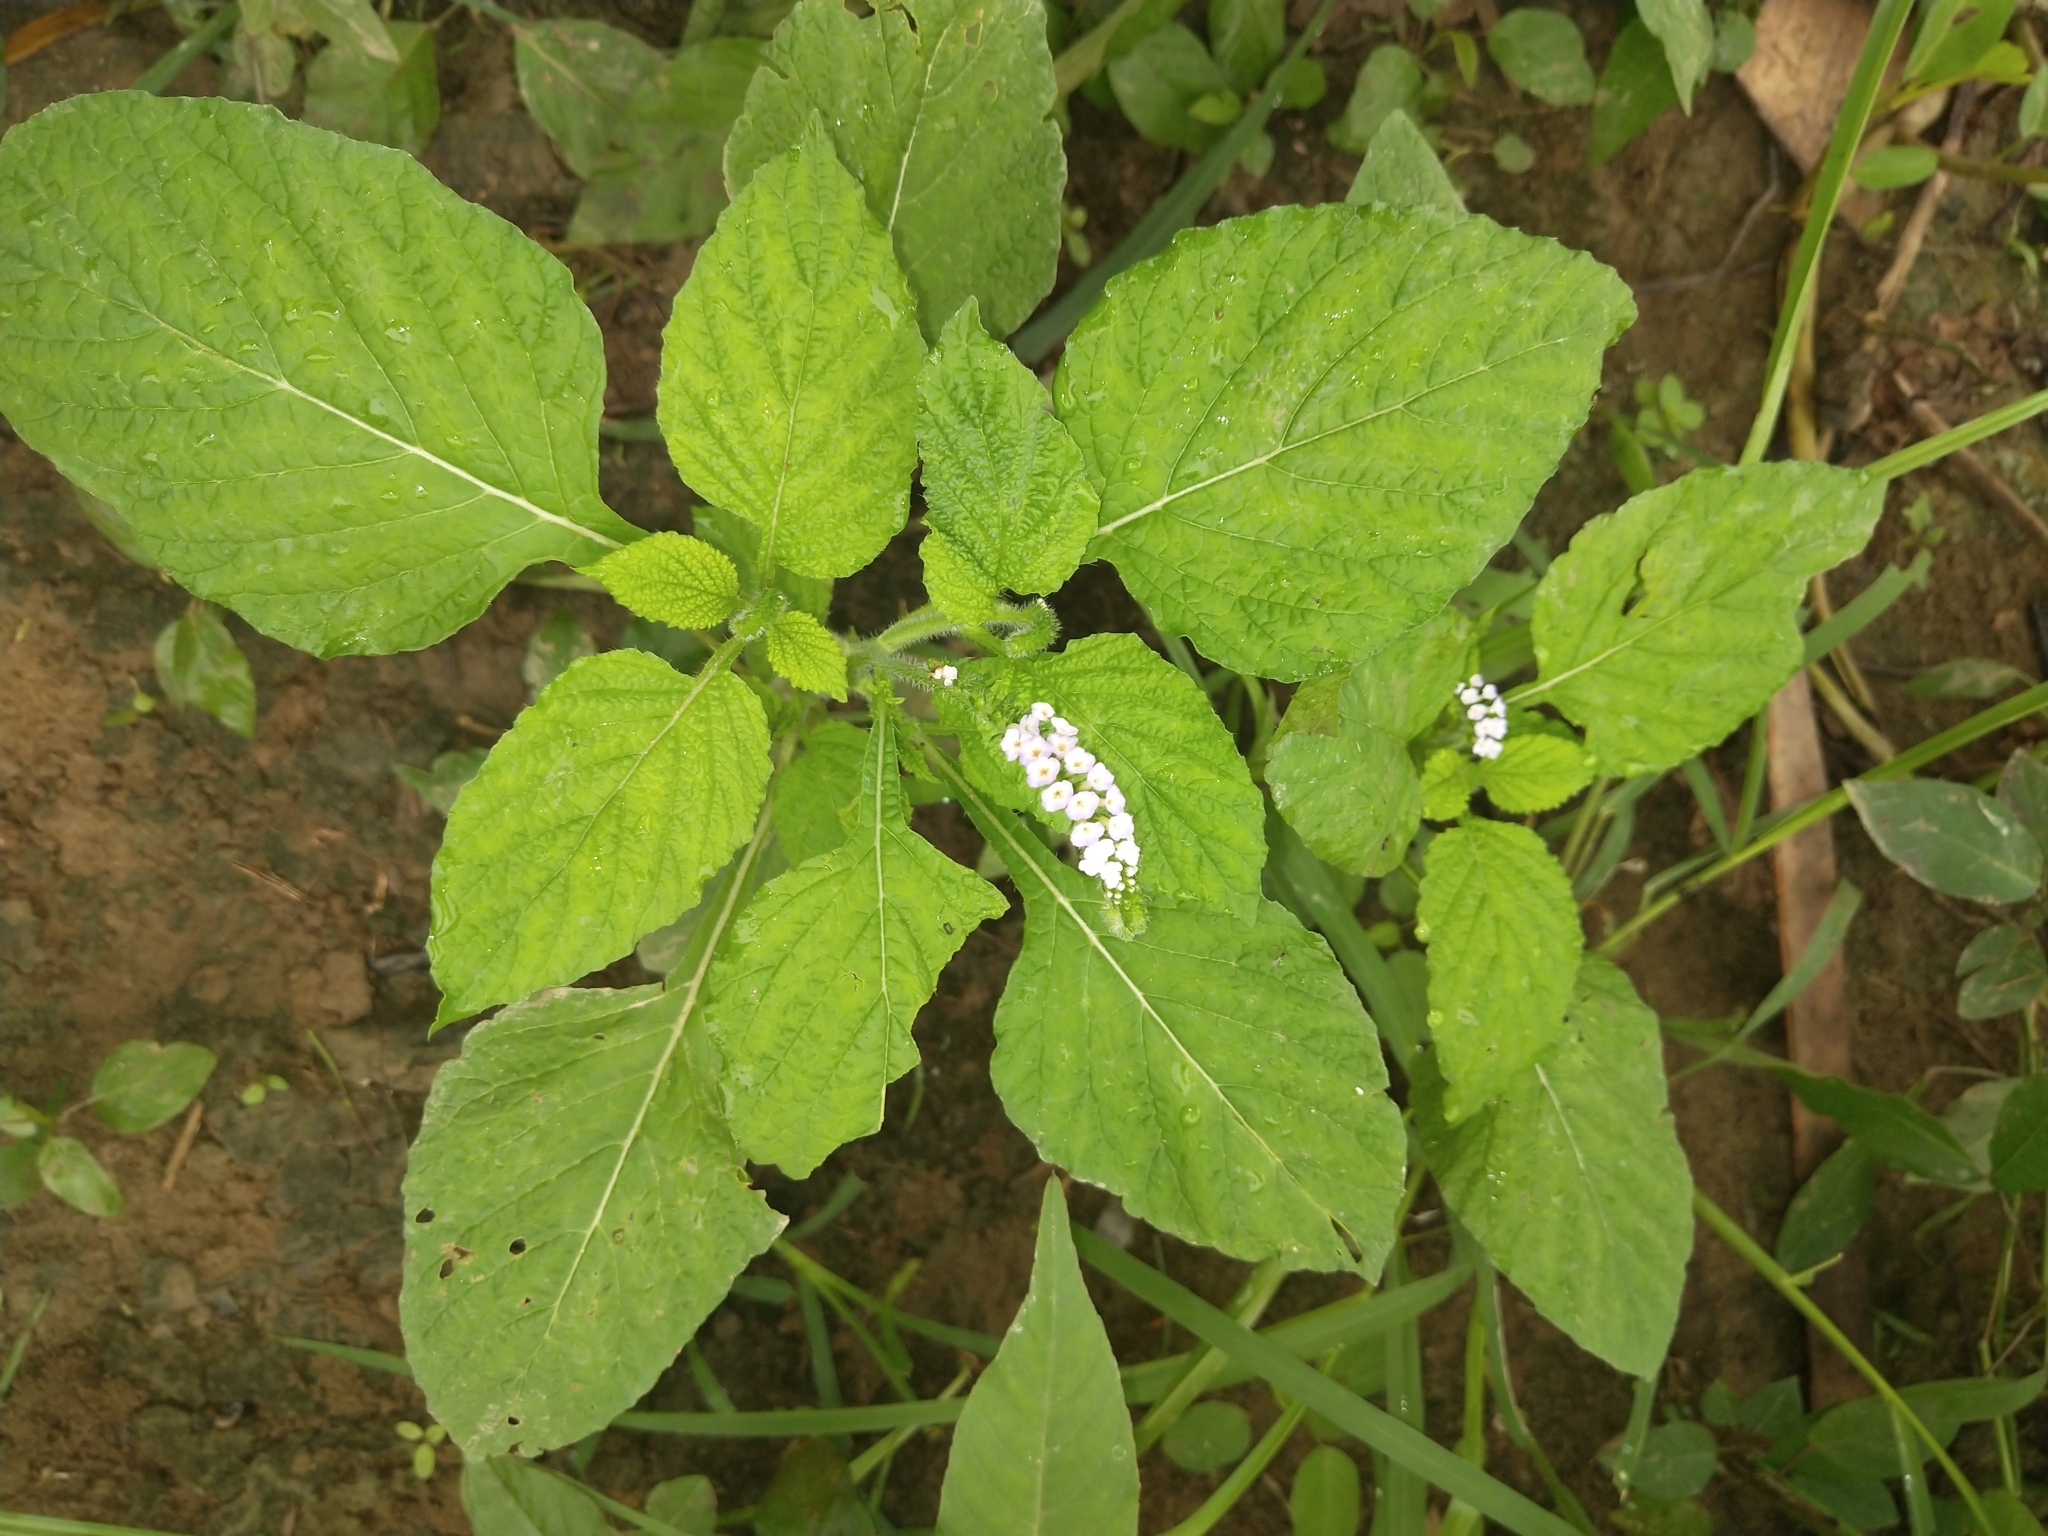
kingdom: Plantae
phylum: Tracheophyta
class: Magnoliopsida
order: Boraginales
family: Heliotropiaceae
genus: Heliotropium
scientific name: Heliotropium indicum
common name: Indian heliotrope
